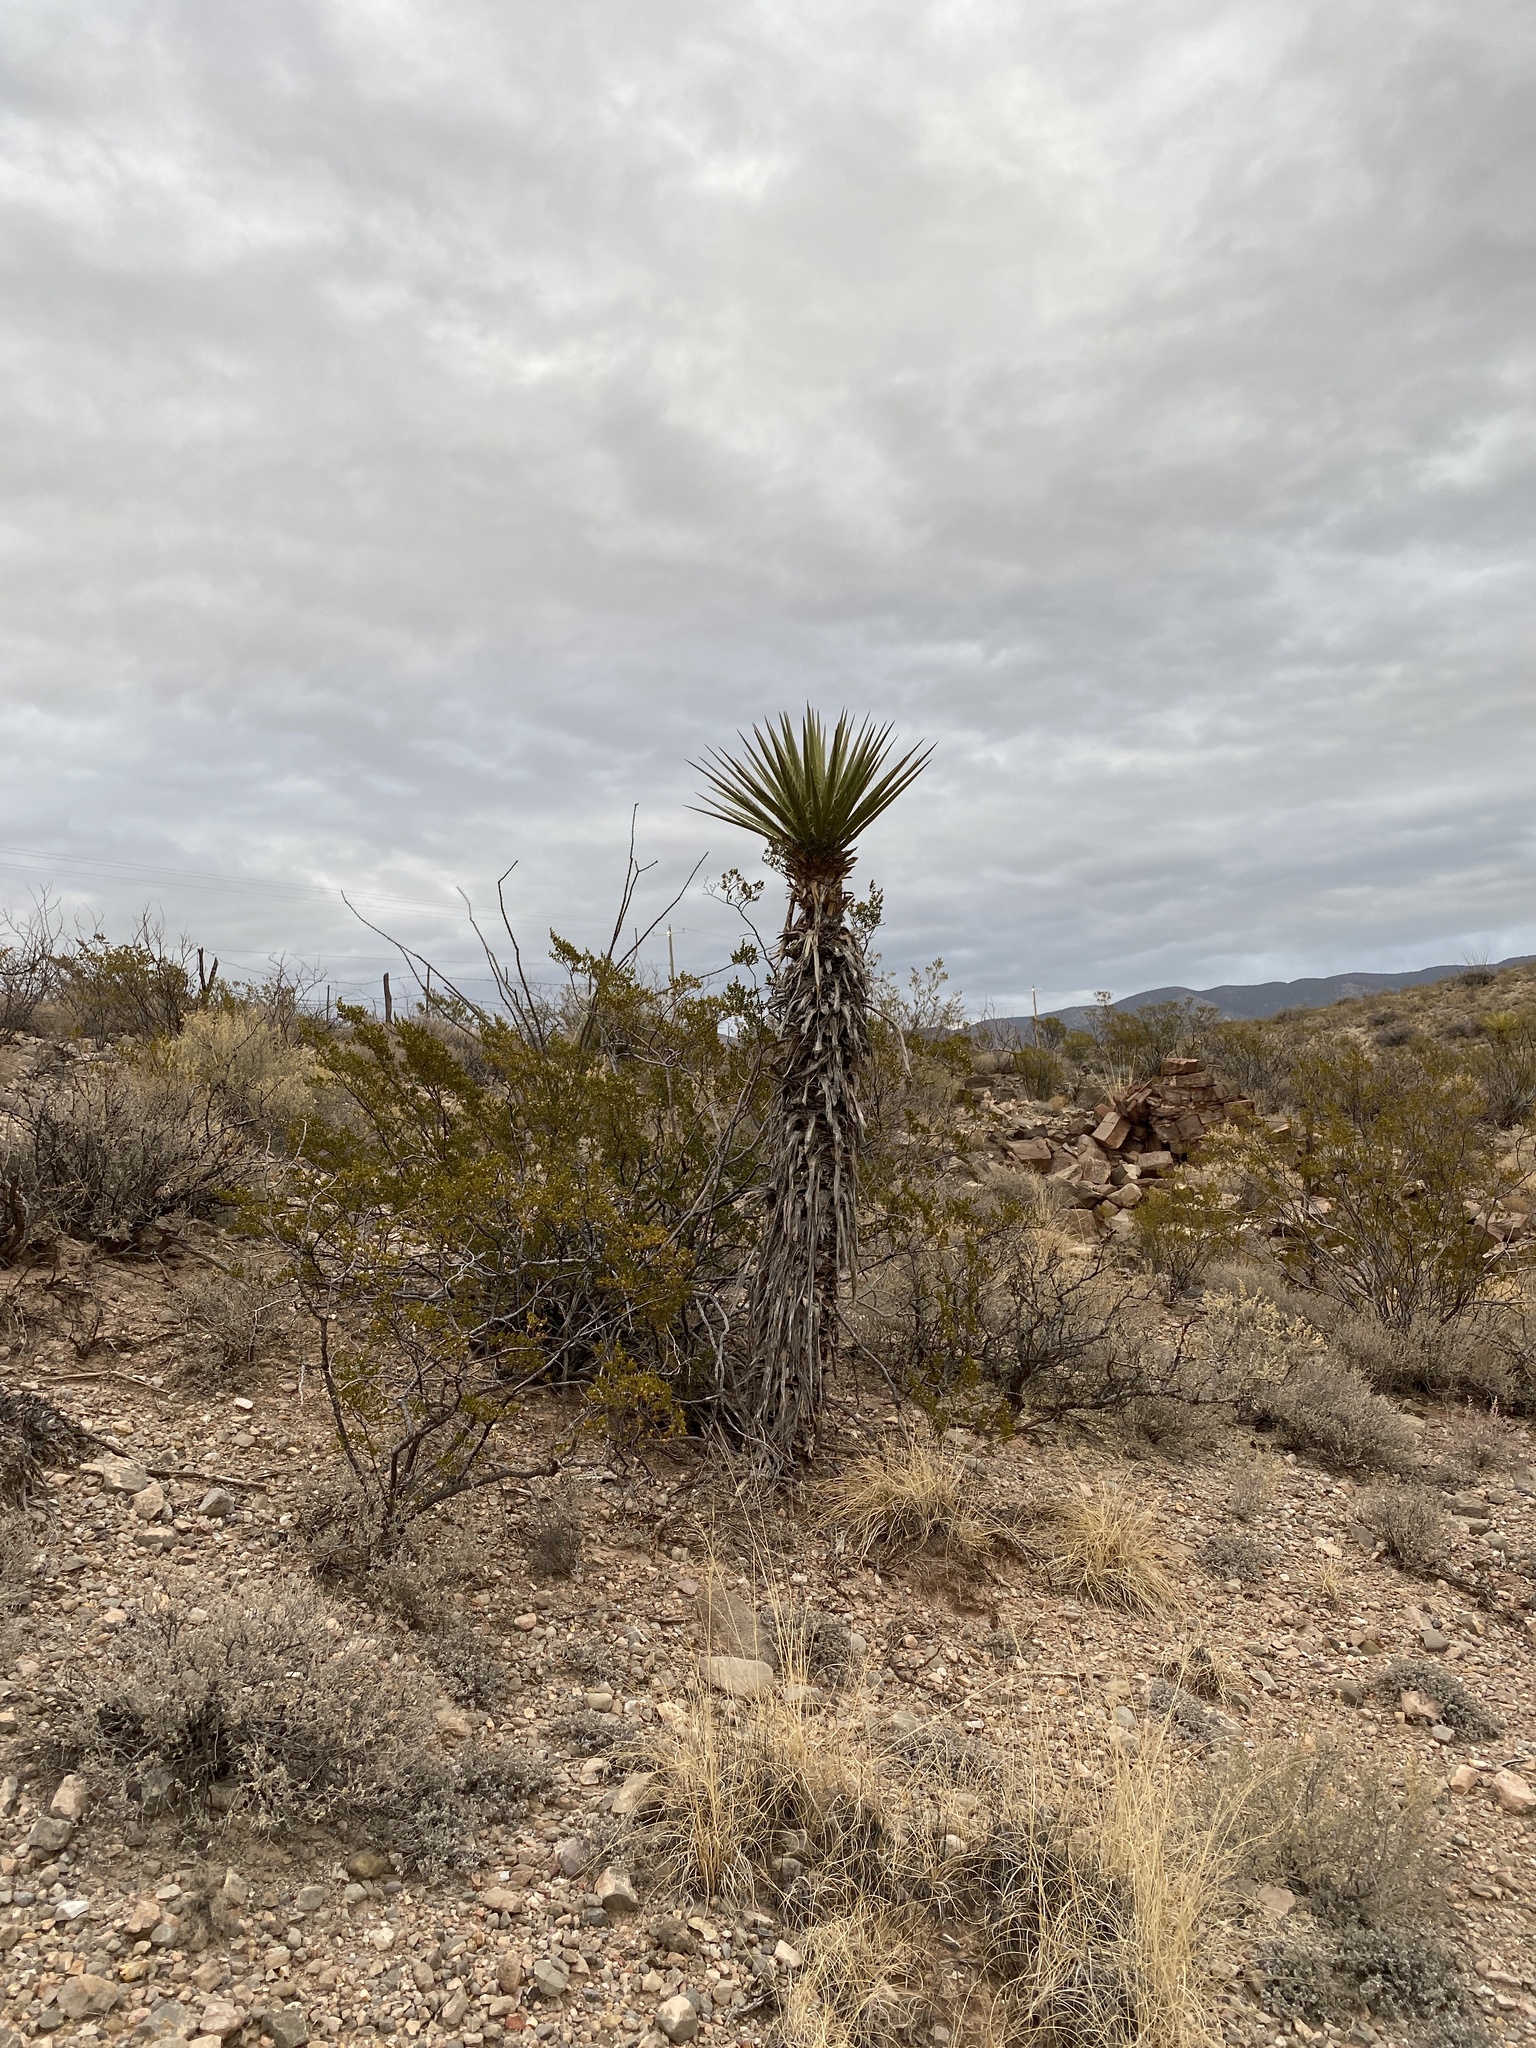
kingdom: Plantae
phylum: Tracheophyta
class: Liliopsida
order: Asparagales
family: Asparagaceae
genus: Yucca
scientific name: Yucca treculiana
